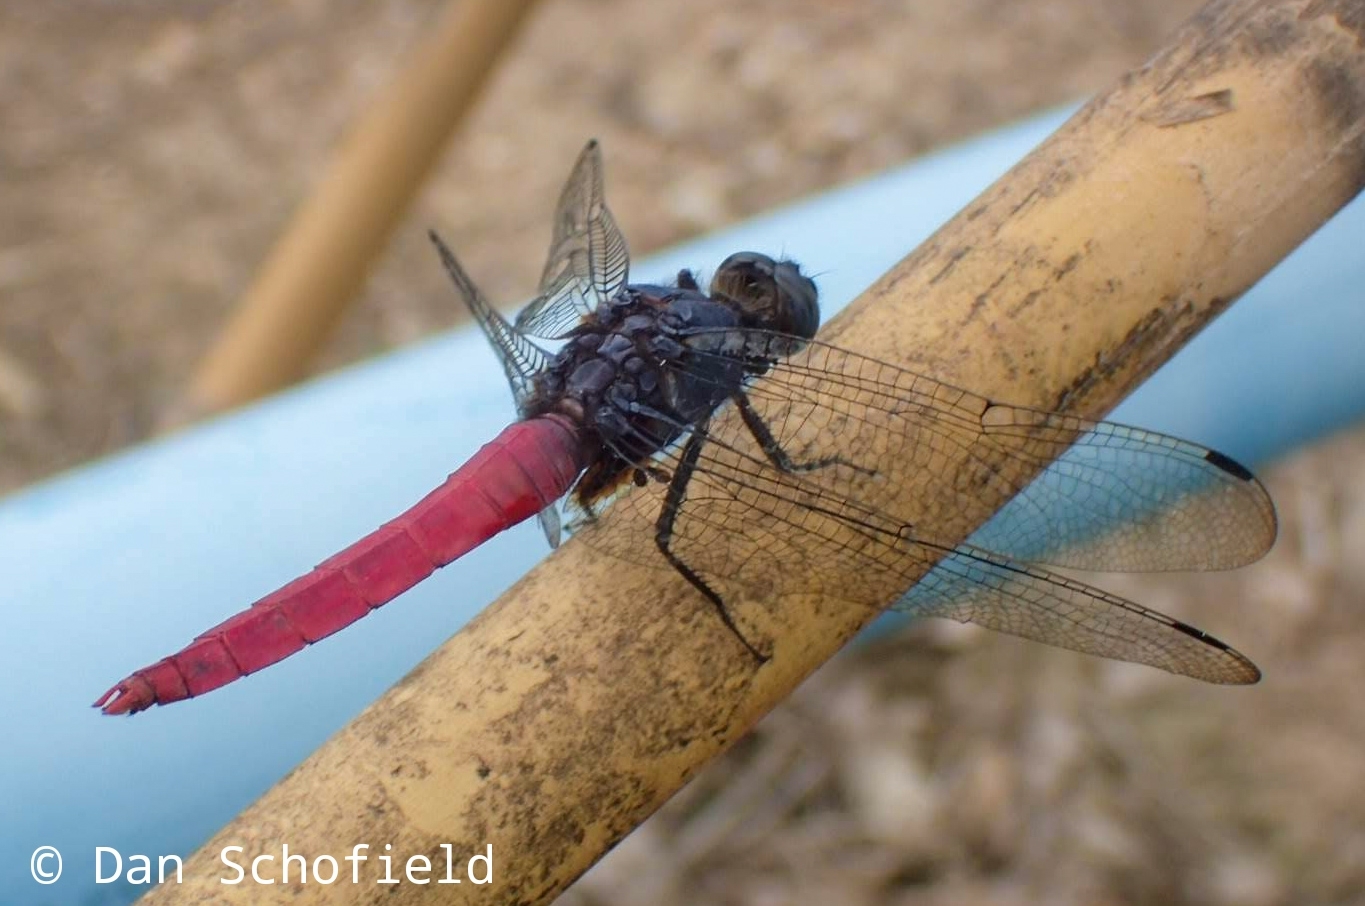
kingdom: Animalia
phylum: Arthropoda
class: Insecta
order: Odonata
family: Libellulidae
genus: Orthetrum
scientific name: Orthetrum pruinosum
